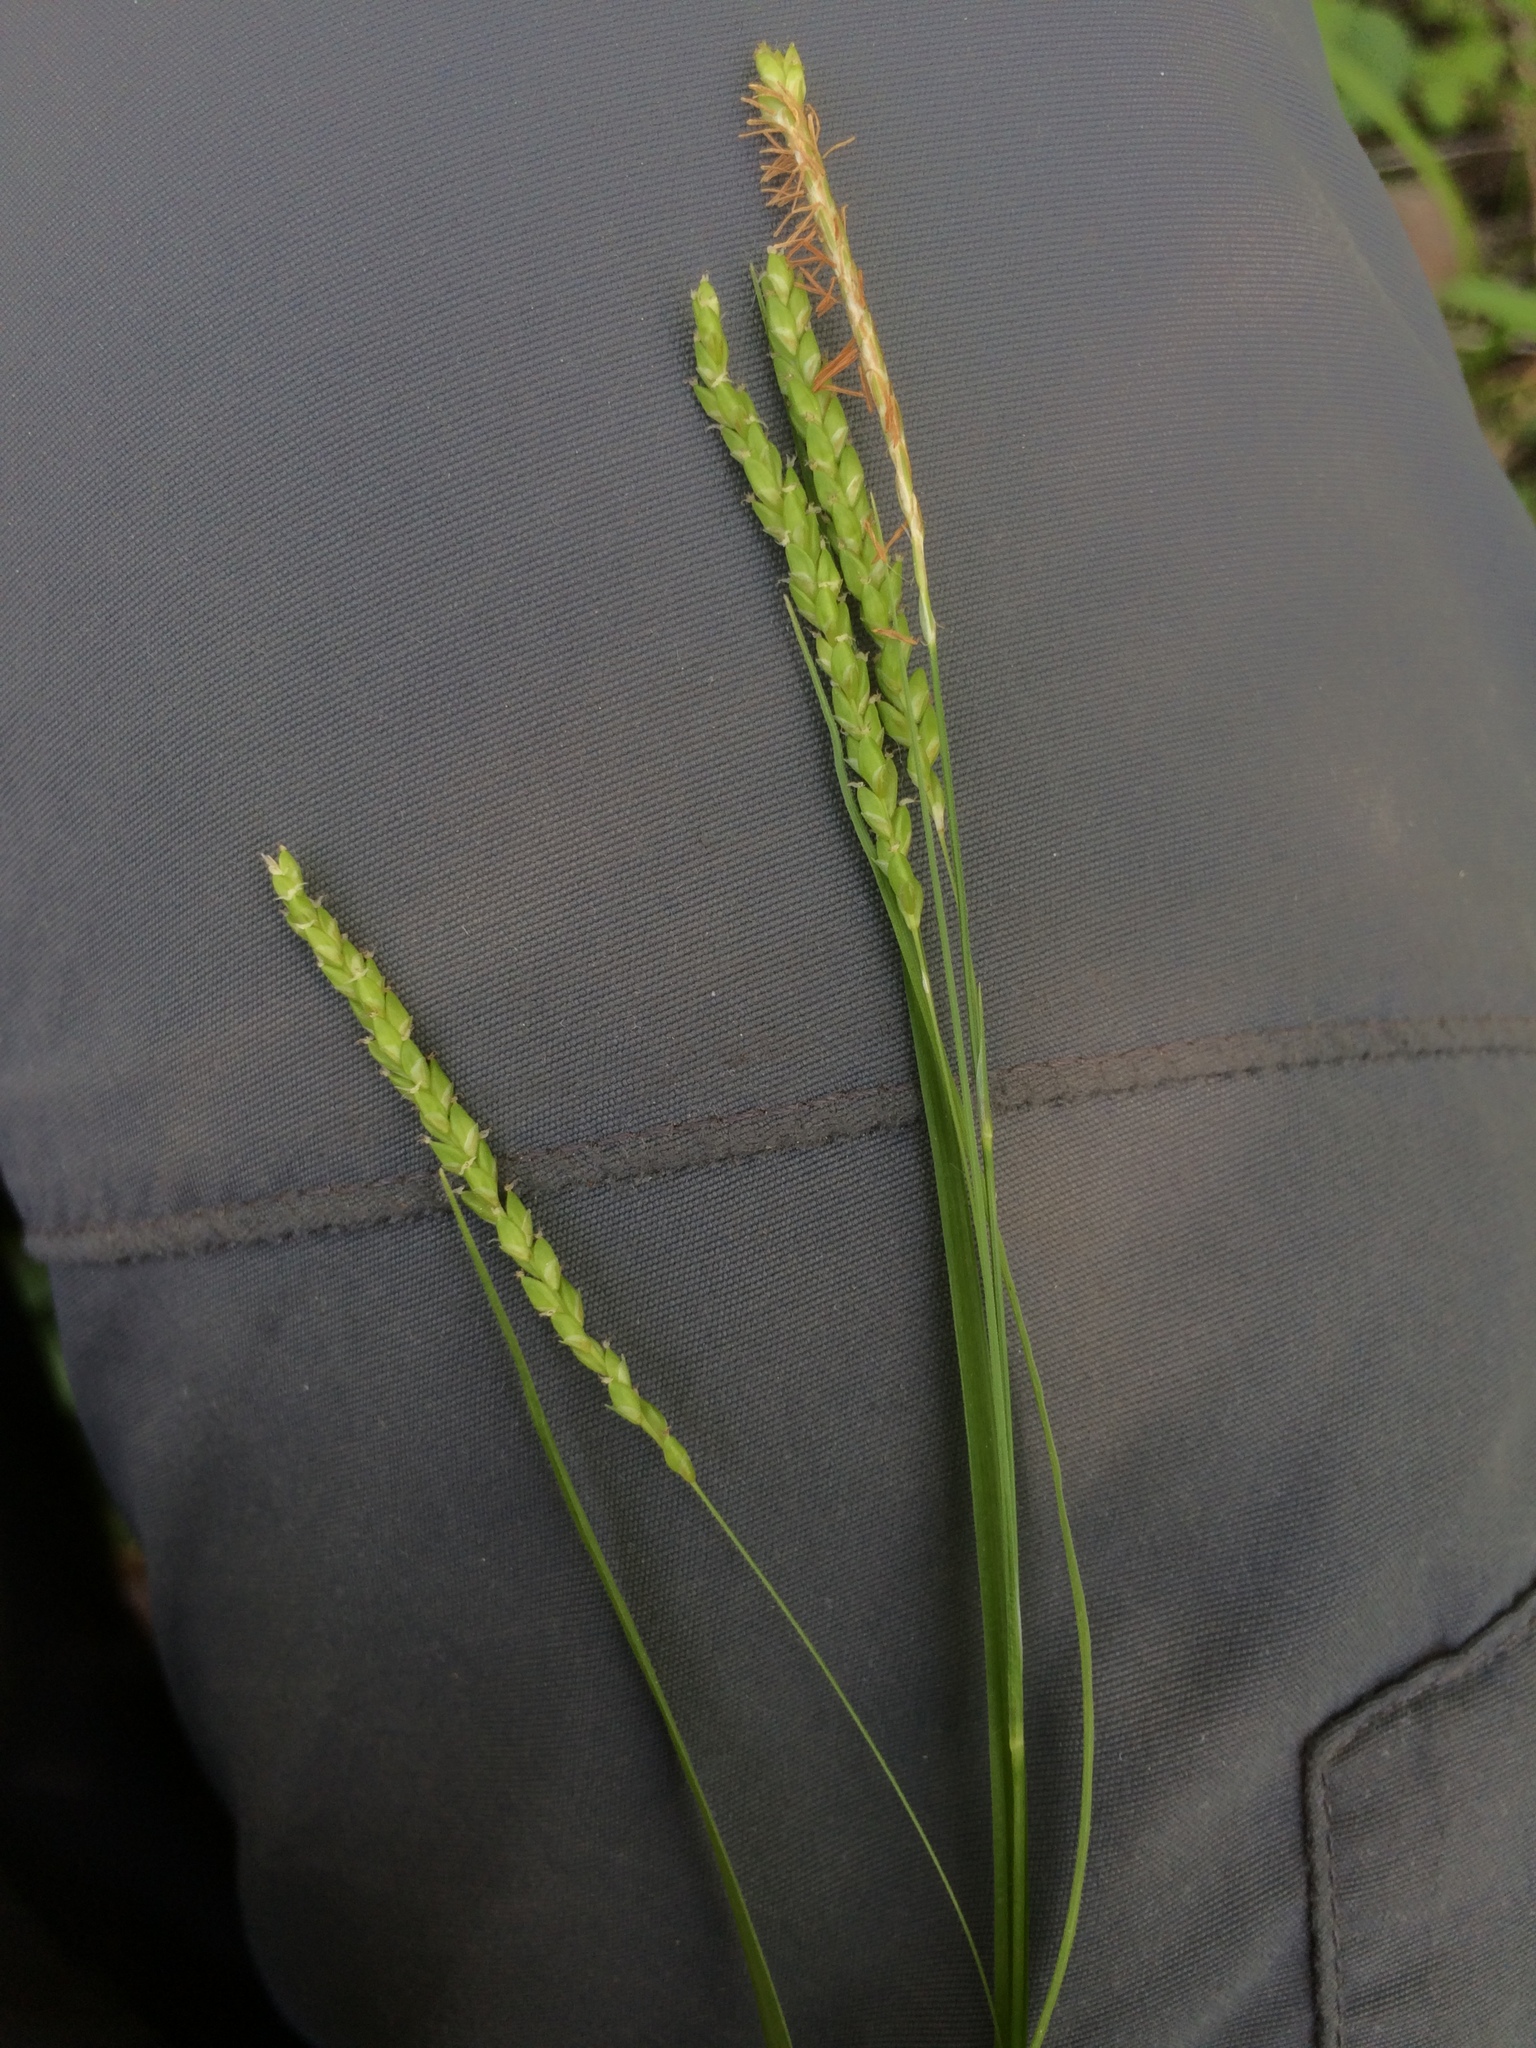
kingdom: Plantae
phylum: Tracheophyta
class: Liliopsida
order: Poales
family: Cyperaceae
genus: Carex
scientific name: Carex gracillima
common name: Graceful sedge
